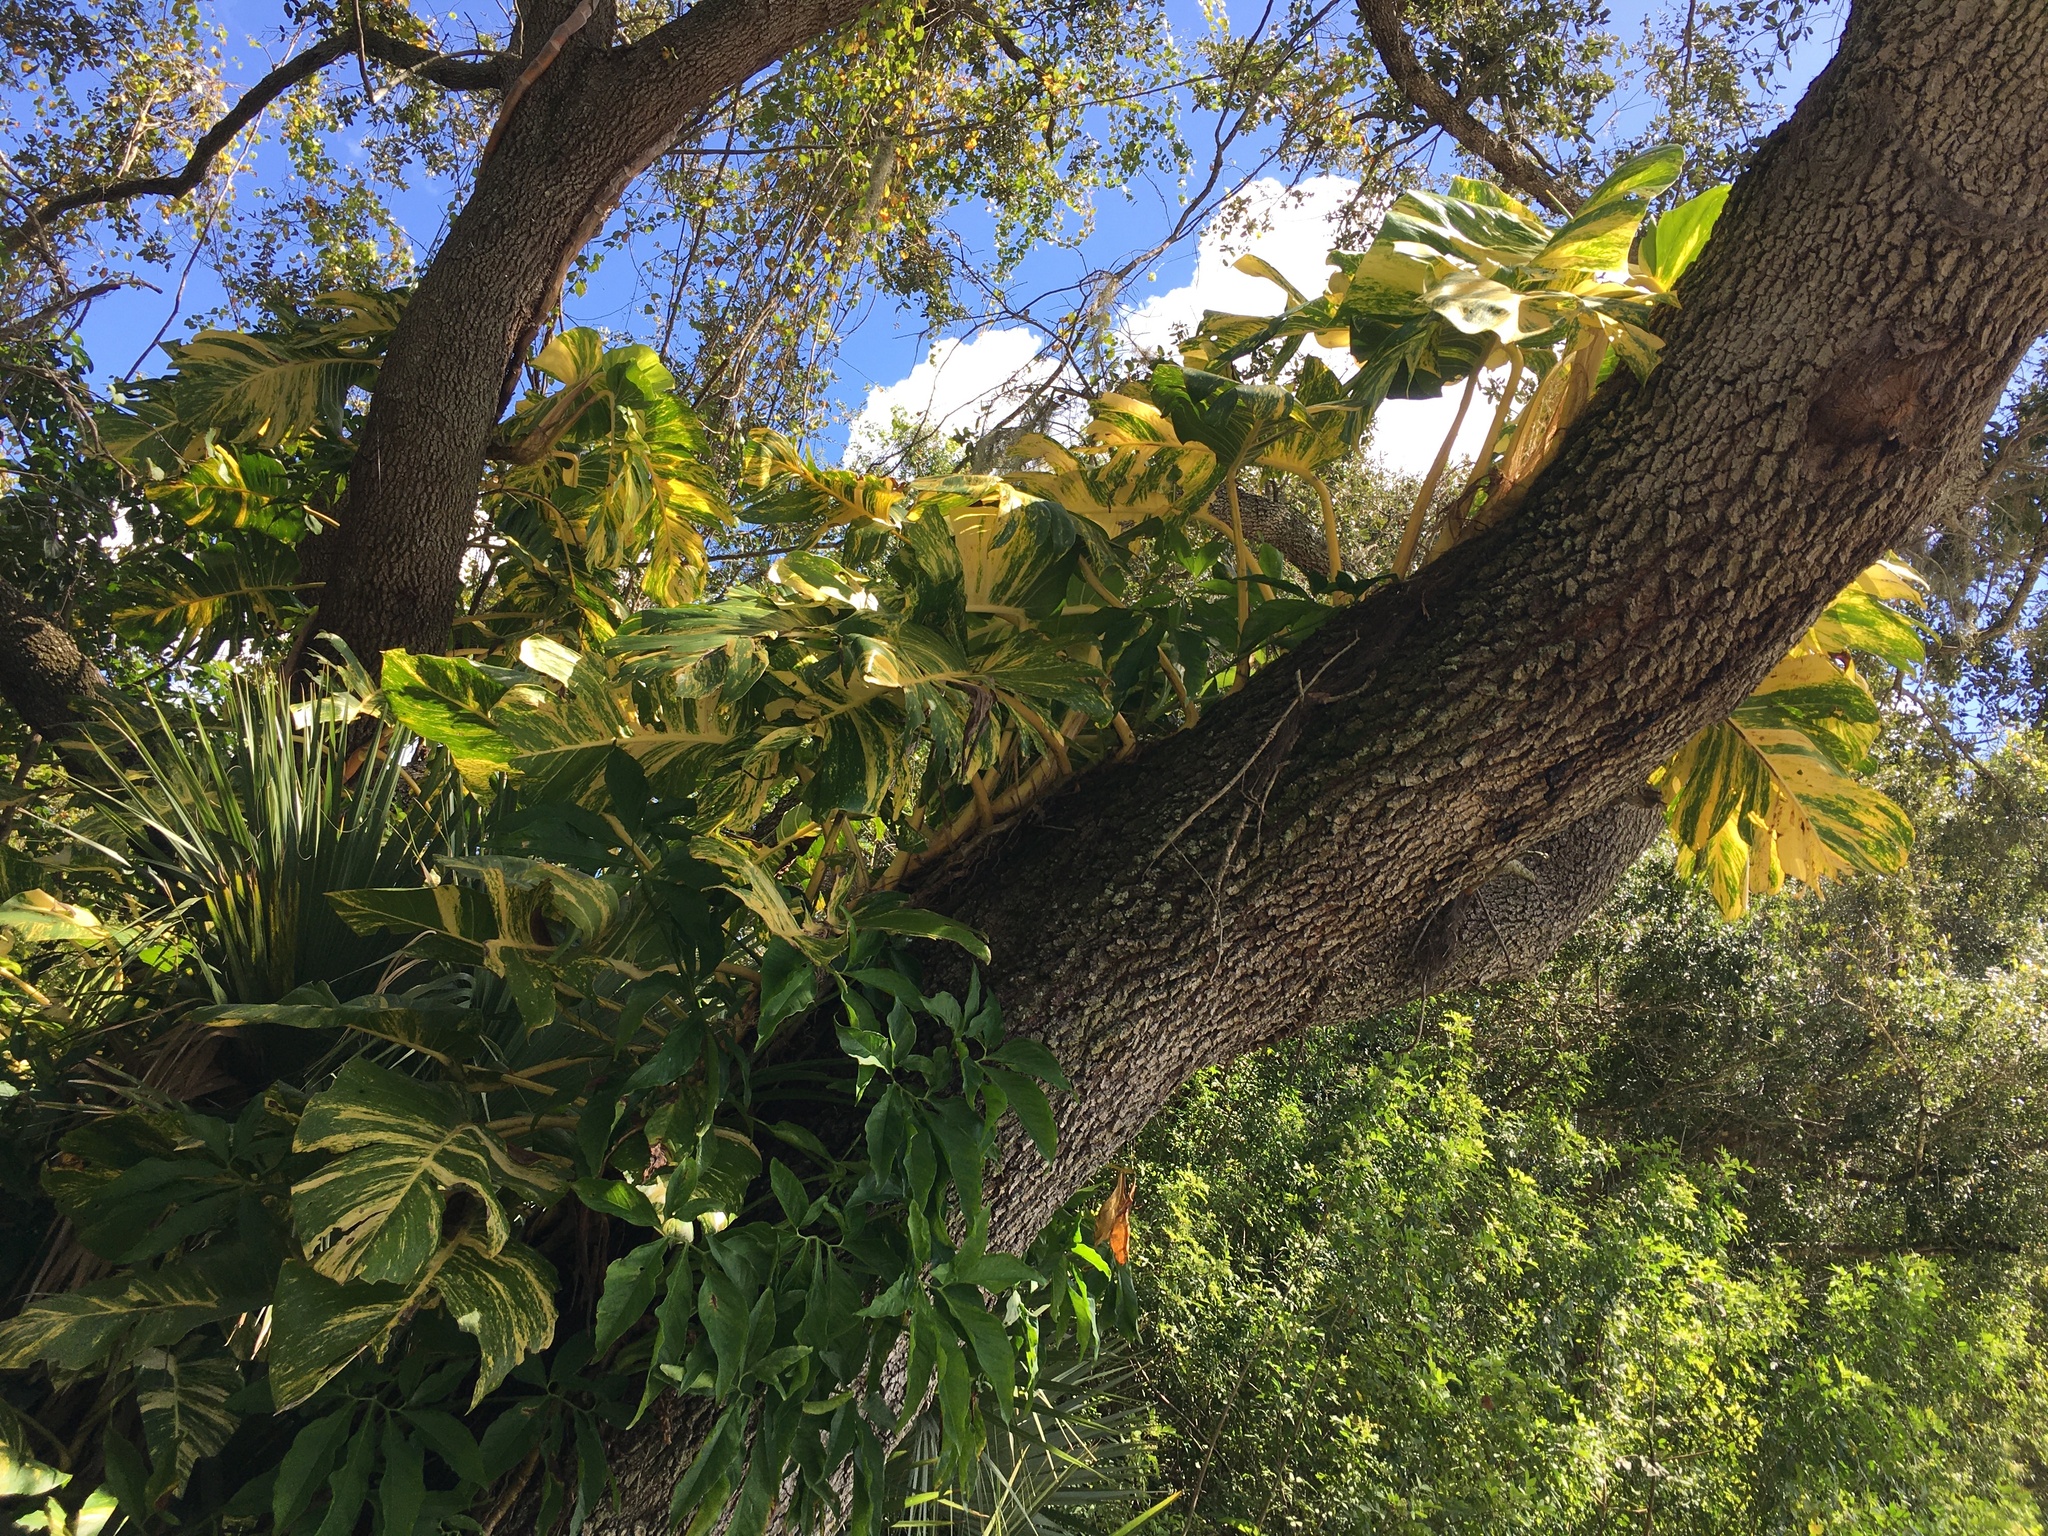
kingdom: Plantae
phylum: Tracheophyta
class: Liliopsida
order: Alismatales
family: Araceae
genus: Epipremnum
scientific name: Epipremnum aureum
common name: Golden hunter's-robe
